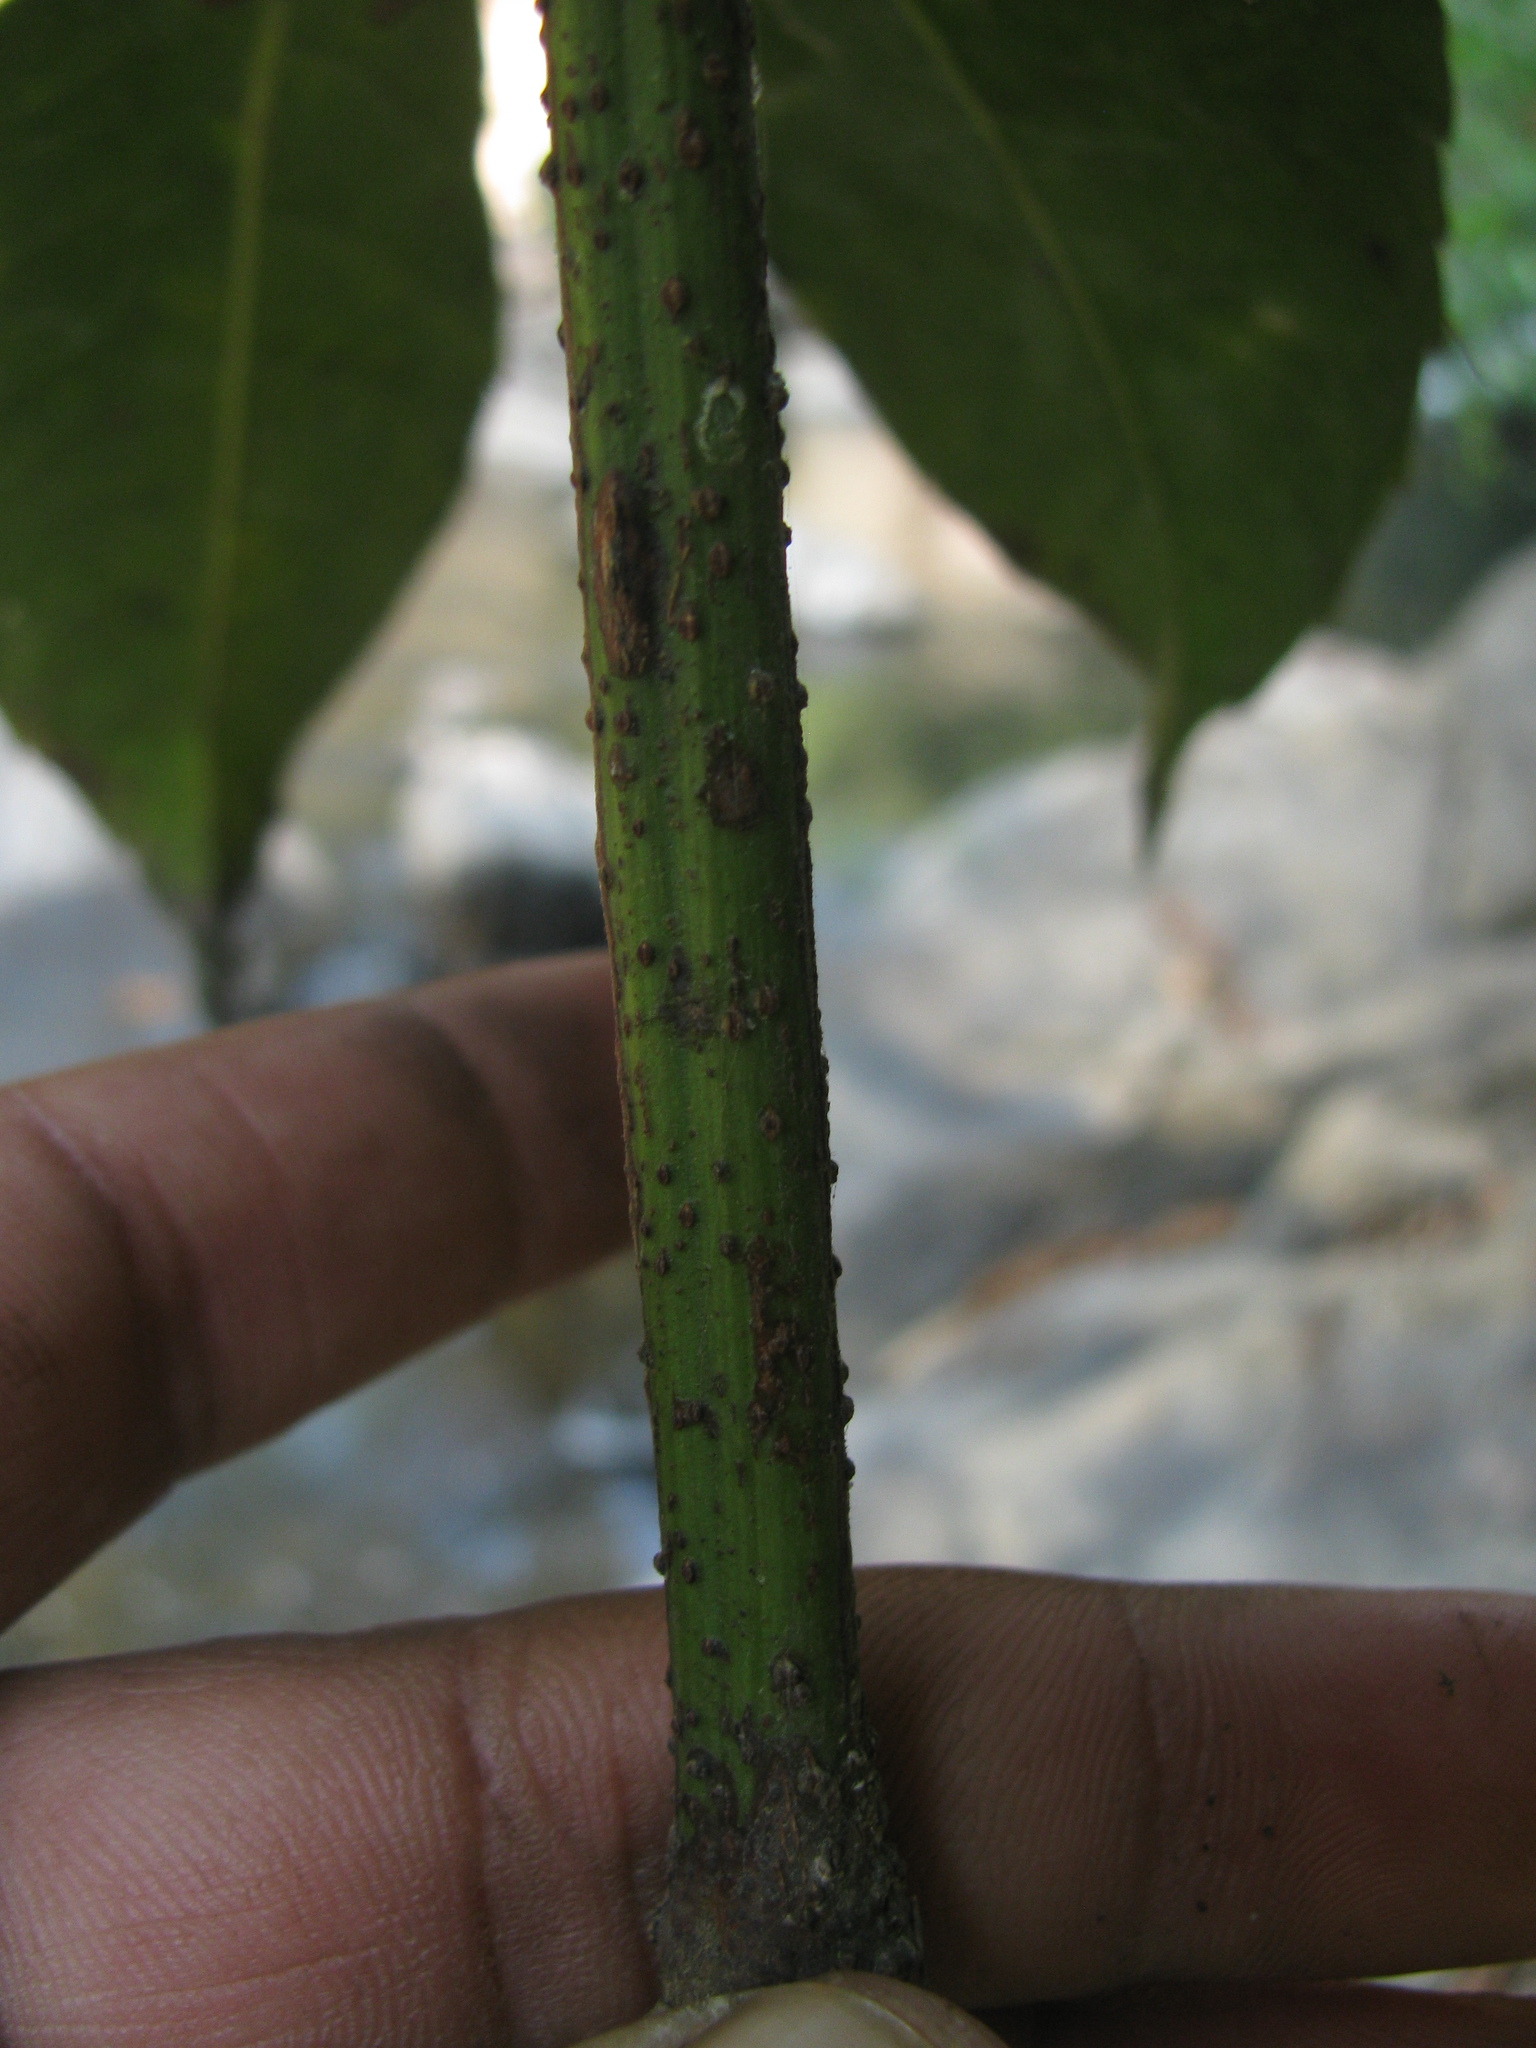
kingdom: Plantae
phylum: Tracheophyta
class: Magnoliopsida
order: Vitales
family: Vitaceae
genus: Cayratia
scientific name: Cayratia pedata
